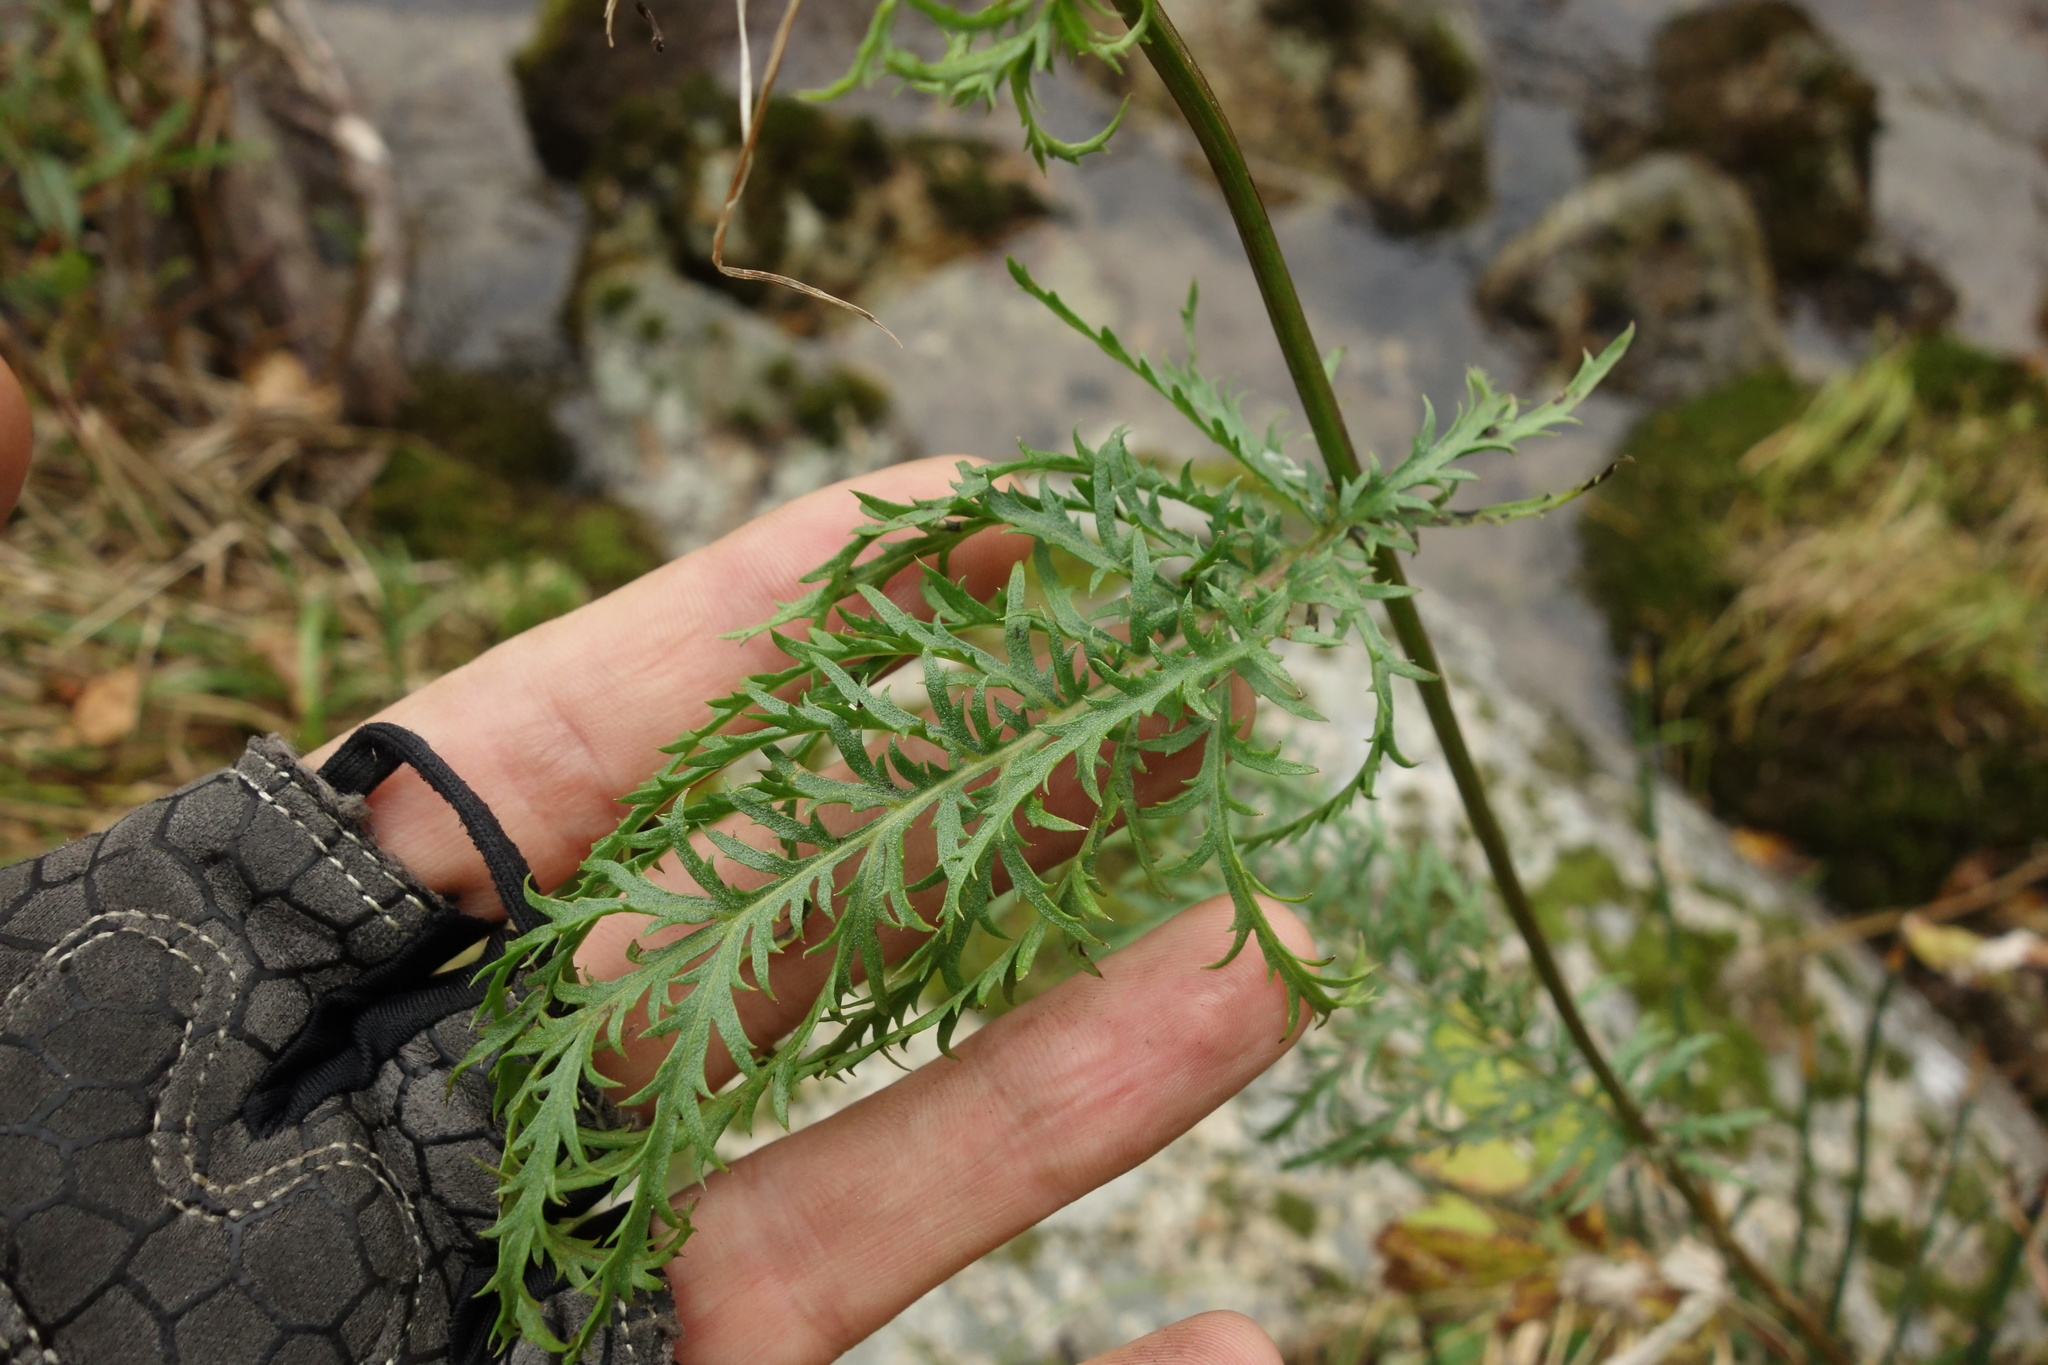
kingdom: Plantae
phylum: Tracheophyta
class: Magnoliopsida
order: Asterales
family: Asteraceae
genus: Tanacetum
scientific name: Tanacetum vulgare
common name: Common tansy
